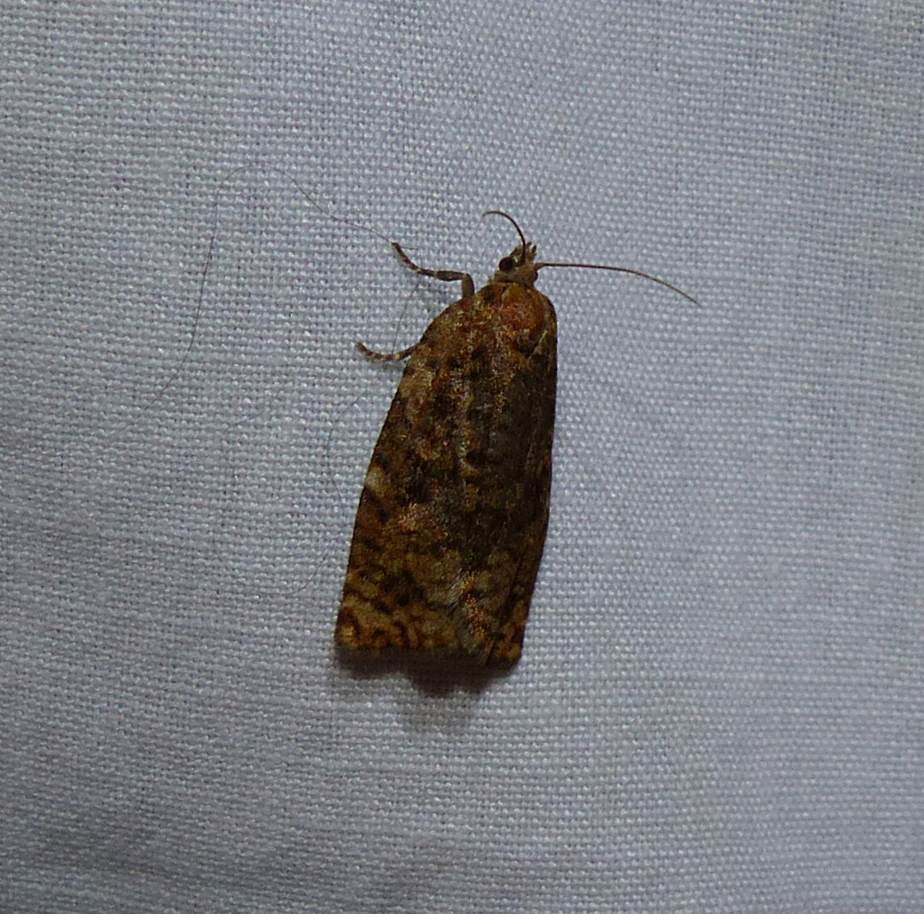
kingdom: Animalia
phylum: Arthropoda
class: Insecta
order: Lepidoptera
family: Tortricidae
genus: Choristoneura
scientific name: Choristoneura fumiferana
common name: Spruce budworm
